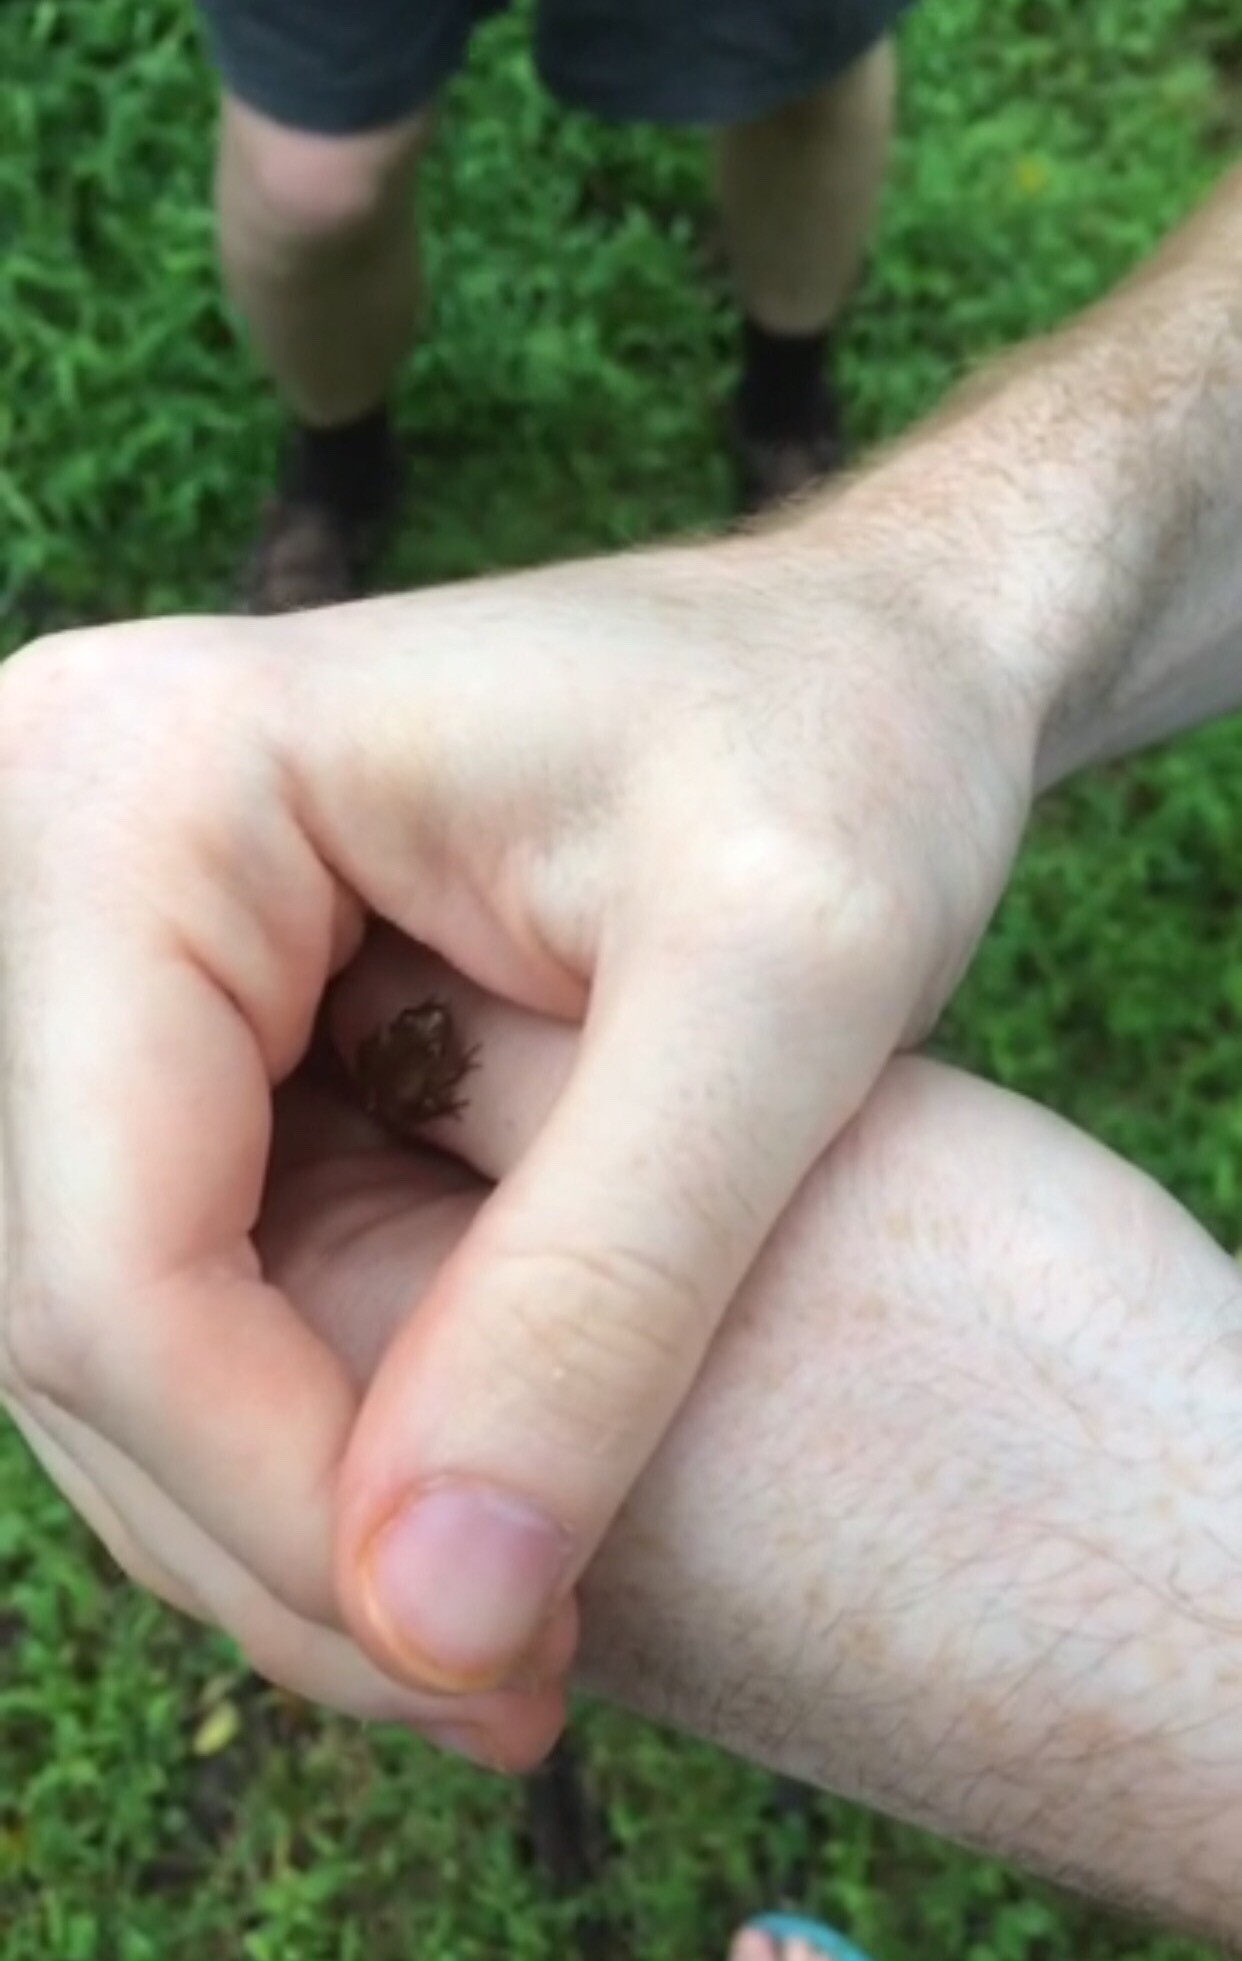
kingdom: Animalia
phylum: Chordata
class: Amphibia
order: Anura
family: Hylidae
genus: Pseudacris
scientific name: Pseudacris crucifer
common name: Spring peeper
